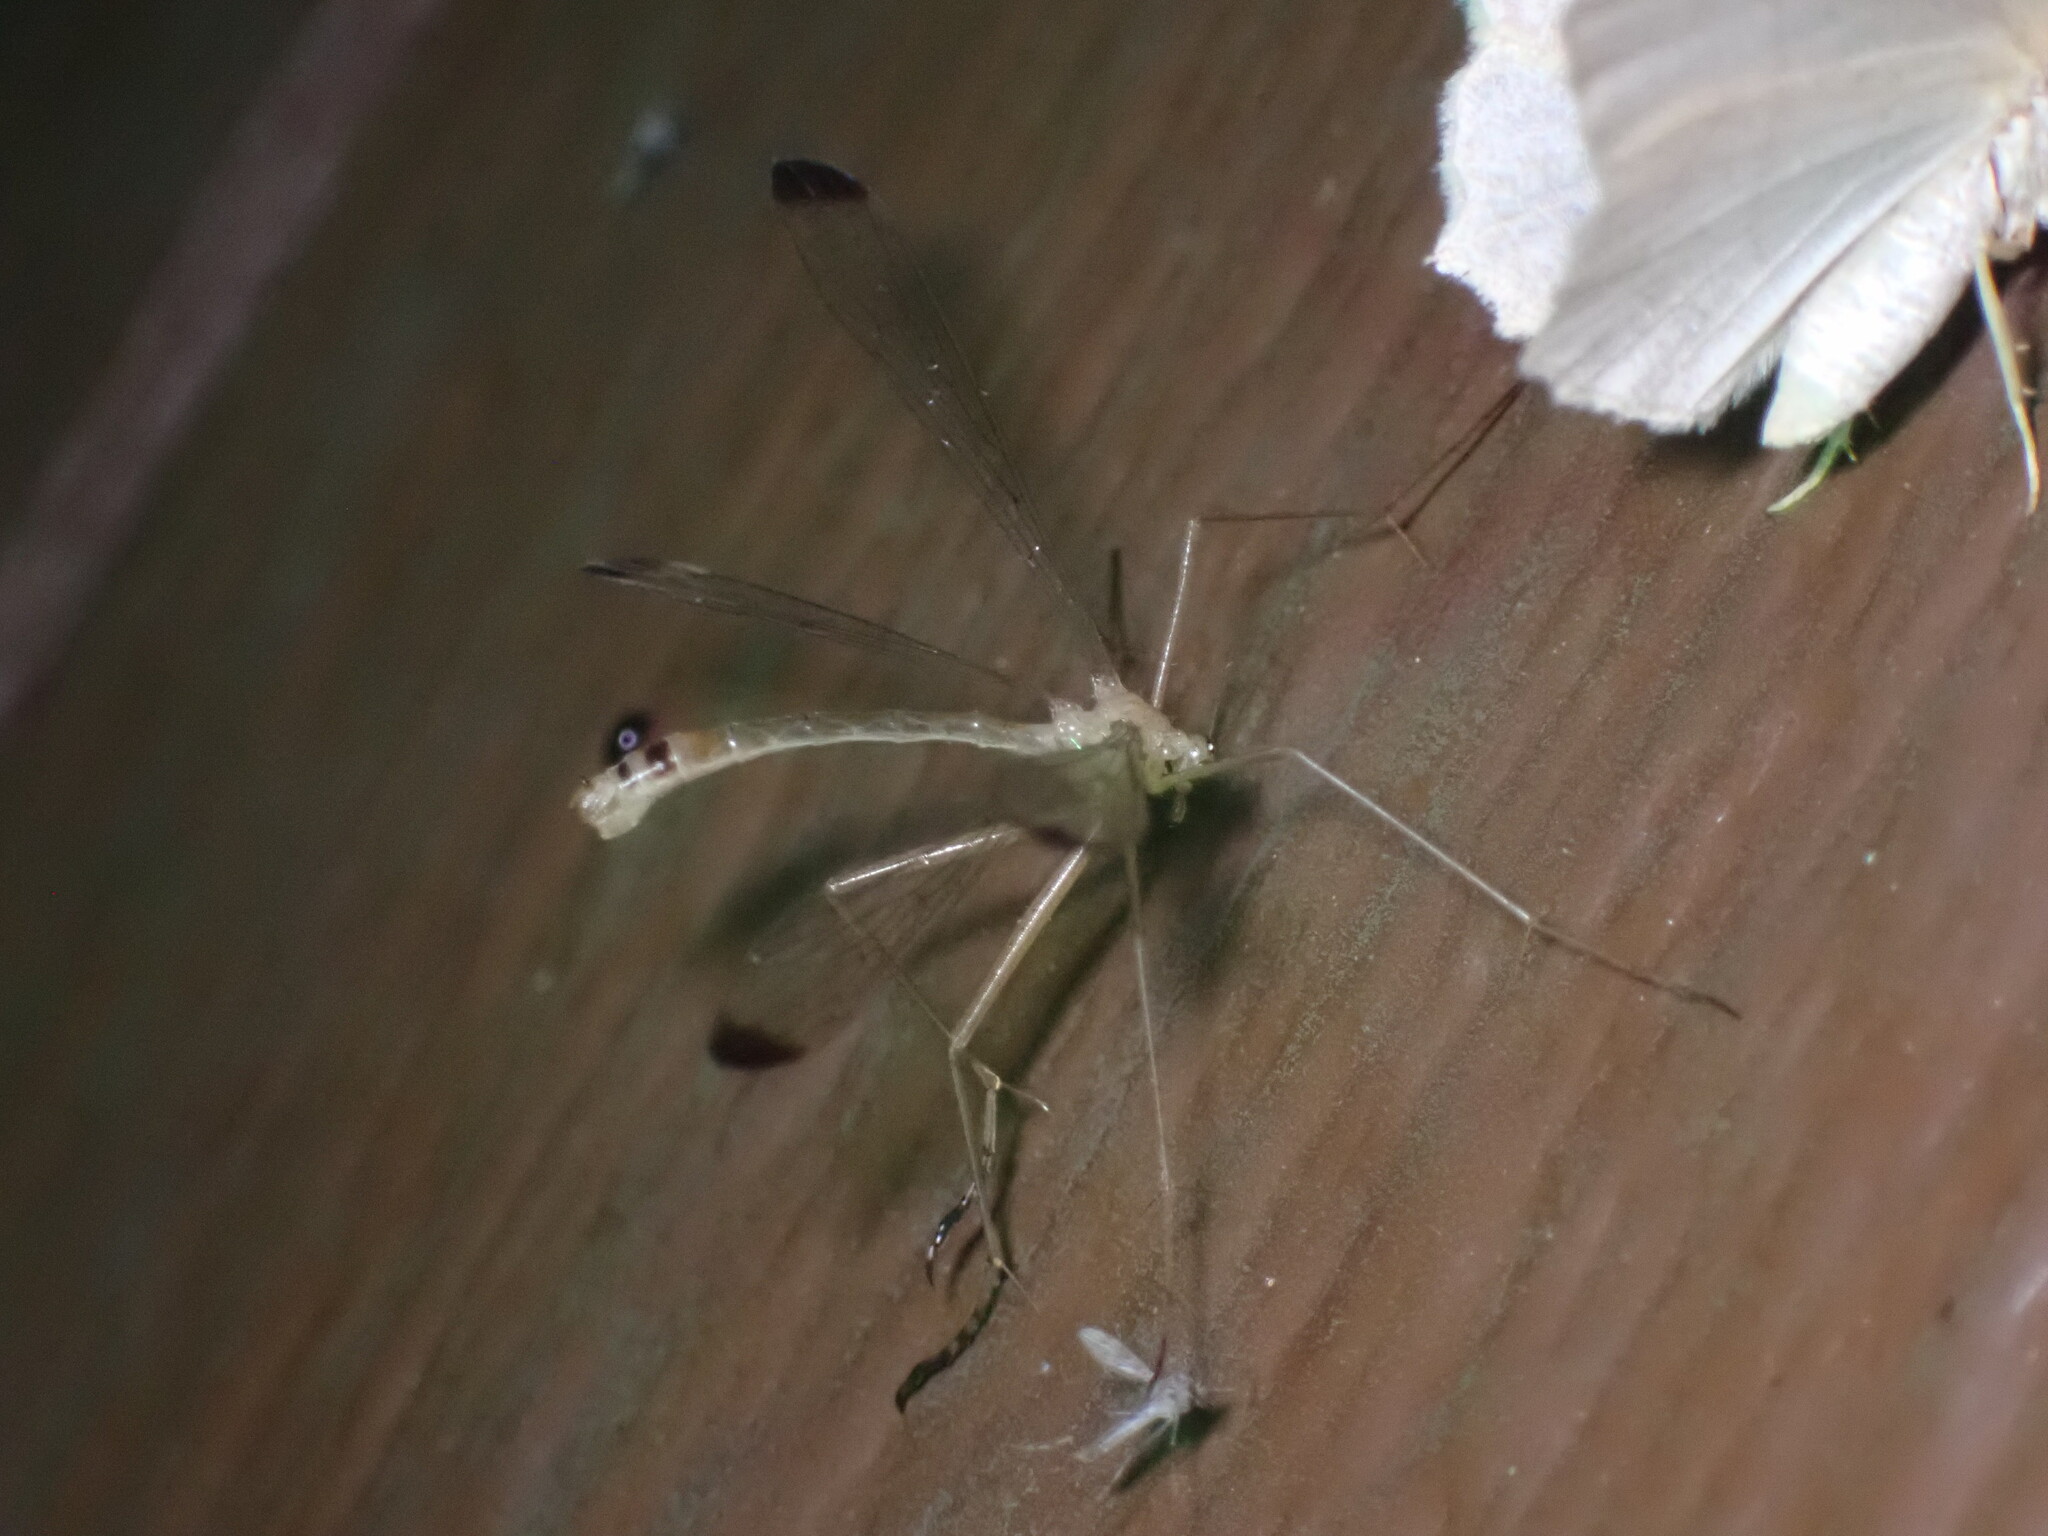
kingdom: Animalia
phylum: Arthropoda
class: Insecta
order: Mecoptera
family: Bittacidae
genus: Hylobittacus
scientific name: Hylobittacus apicalis
